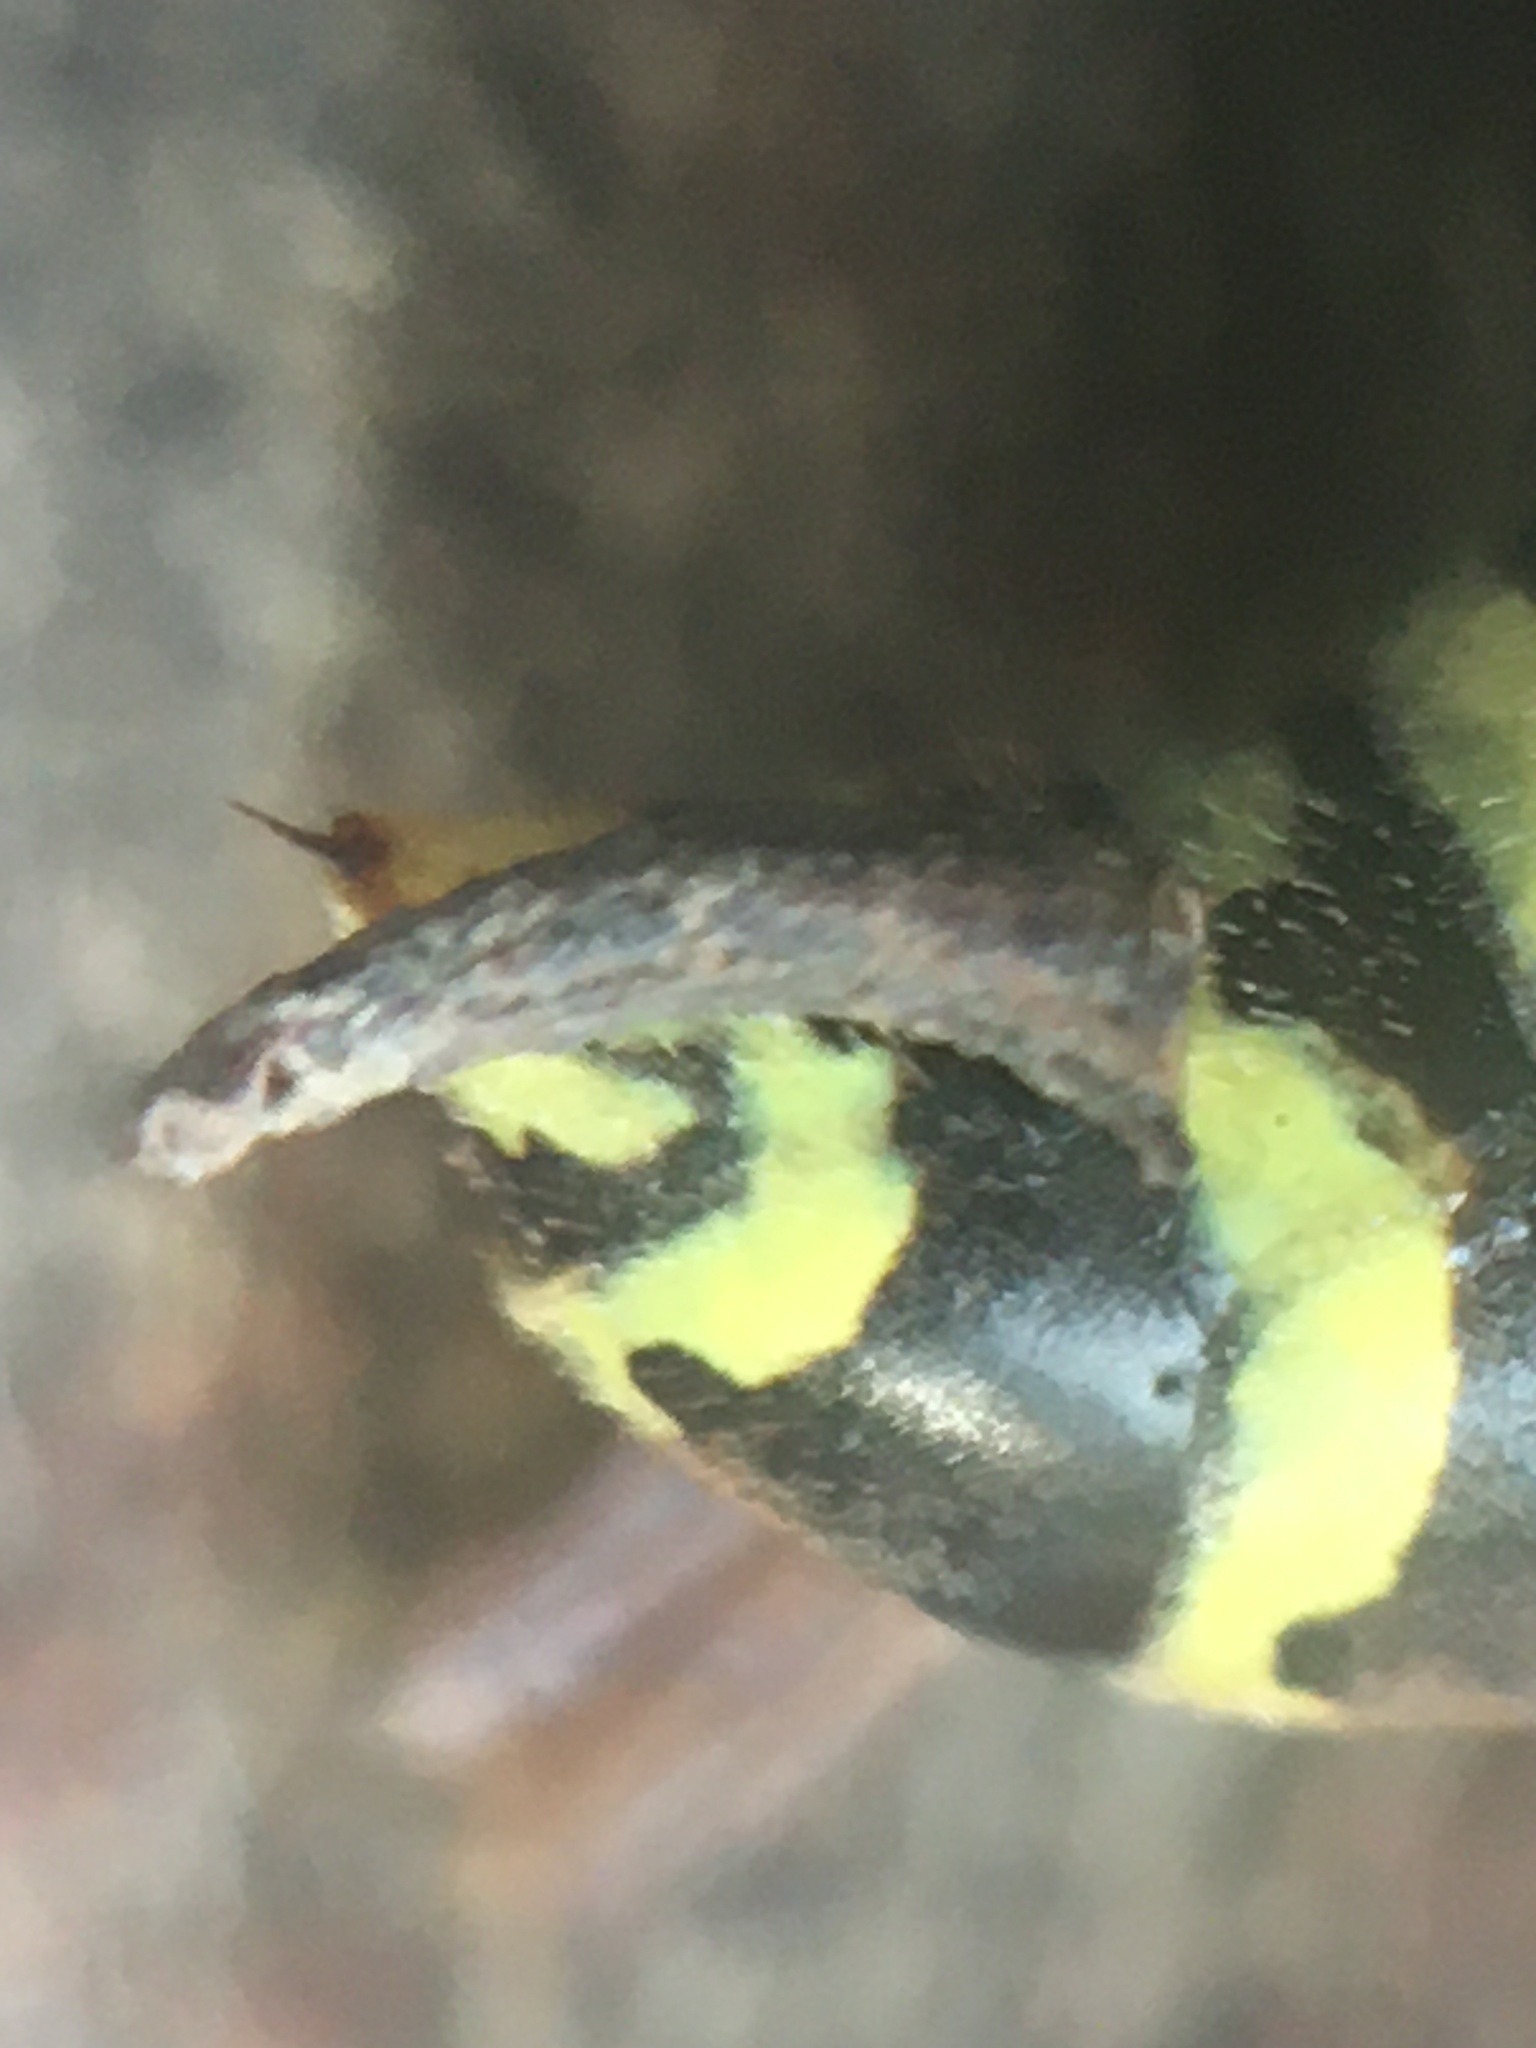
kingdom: Animalia
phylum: Arthropoda
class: Insecta
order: Hymenoptera
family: Eumenidae
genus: Polistes
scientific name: Polistes dominula
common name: Paper wasp
